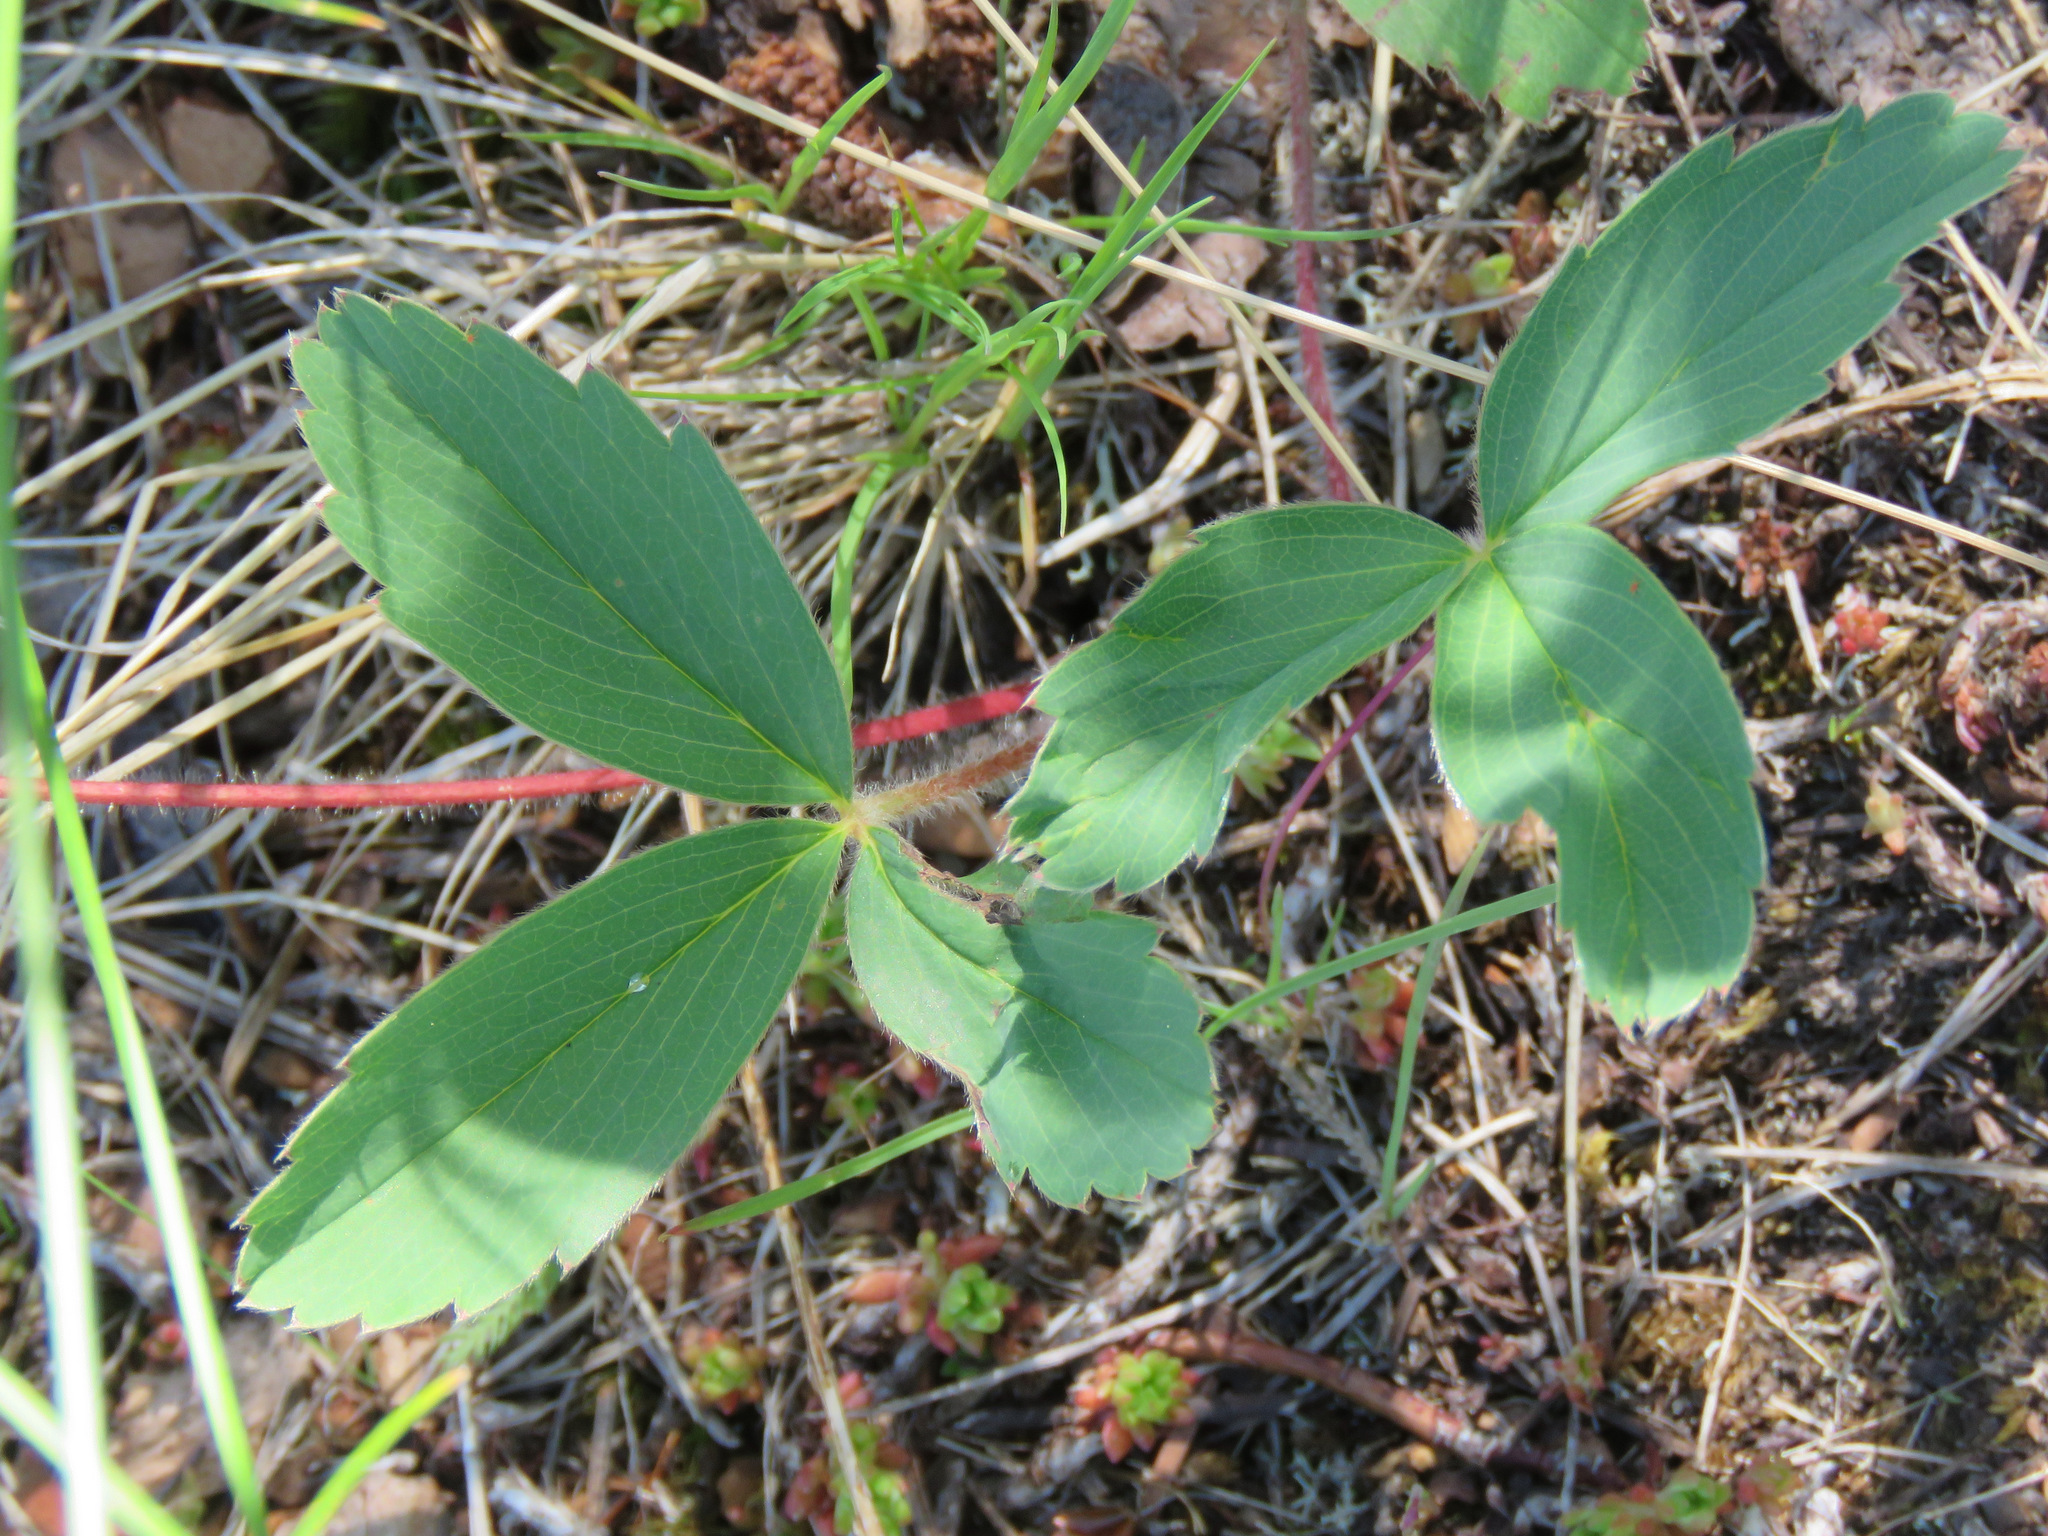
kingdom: Plantae
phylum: Tracheophyta
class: Magnoliopsida
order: Rosales
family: Rosaceae
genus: Fragaria
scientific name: Fragaria virginiana
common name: Thickleaved wild strawberry
